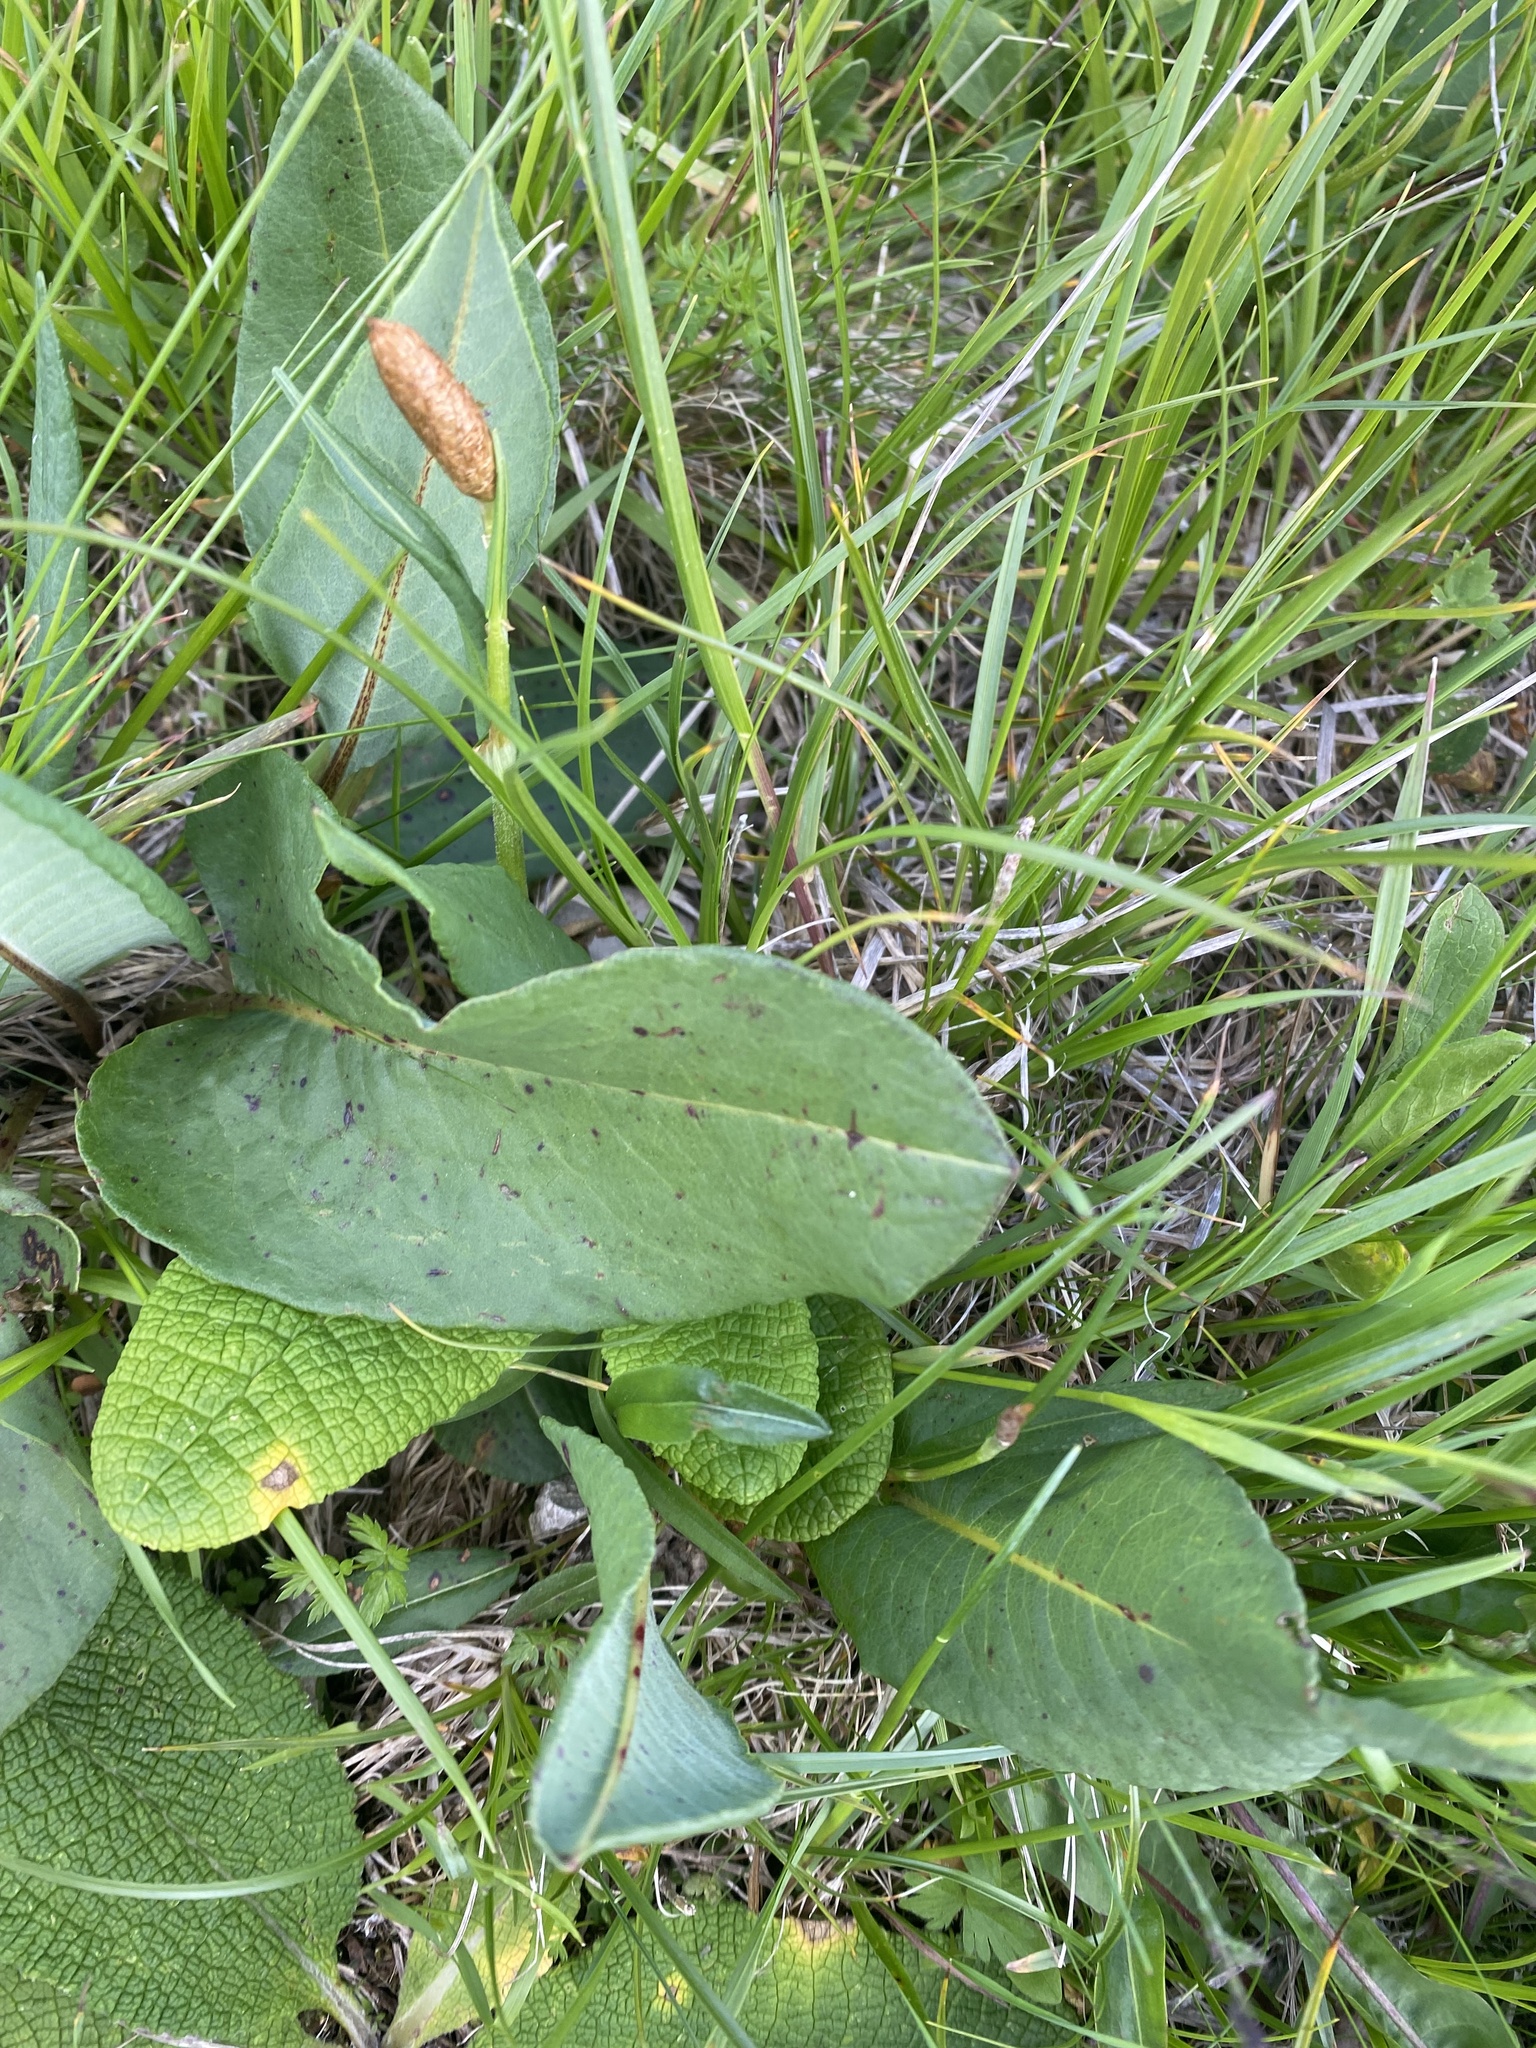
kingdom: Plantae
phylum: Tracheophyta
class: Magnoliopsida
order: Caryophyllales
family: Polygonaceae
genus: Bistorta
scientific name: Bistorta carnea
